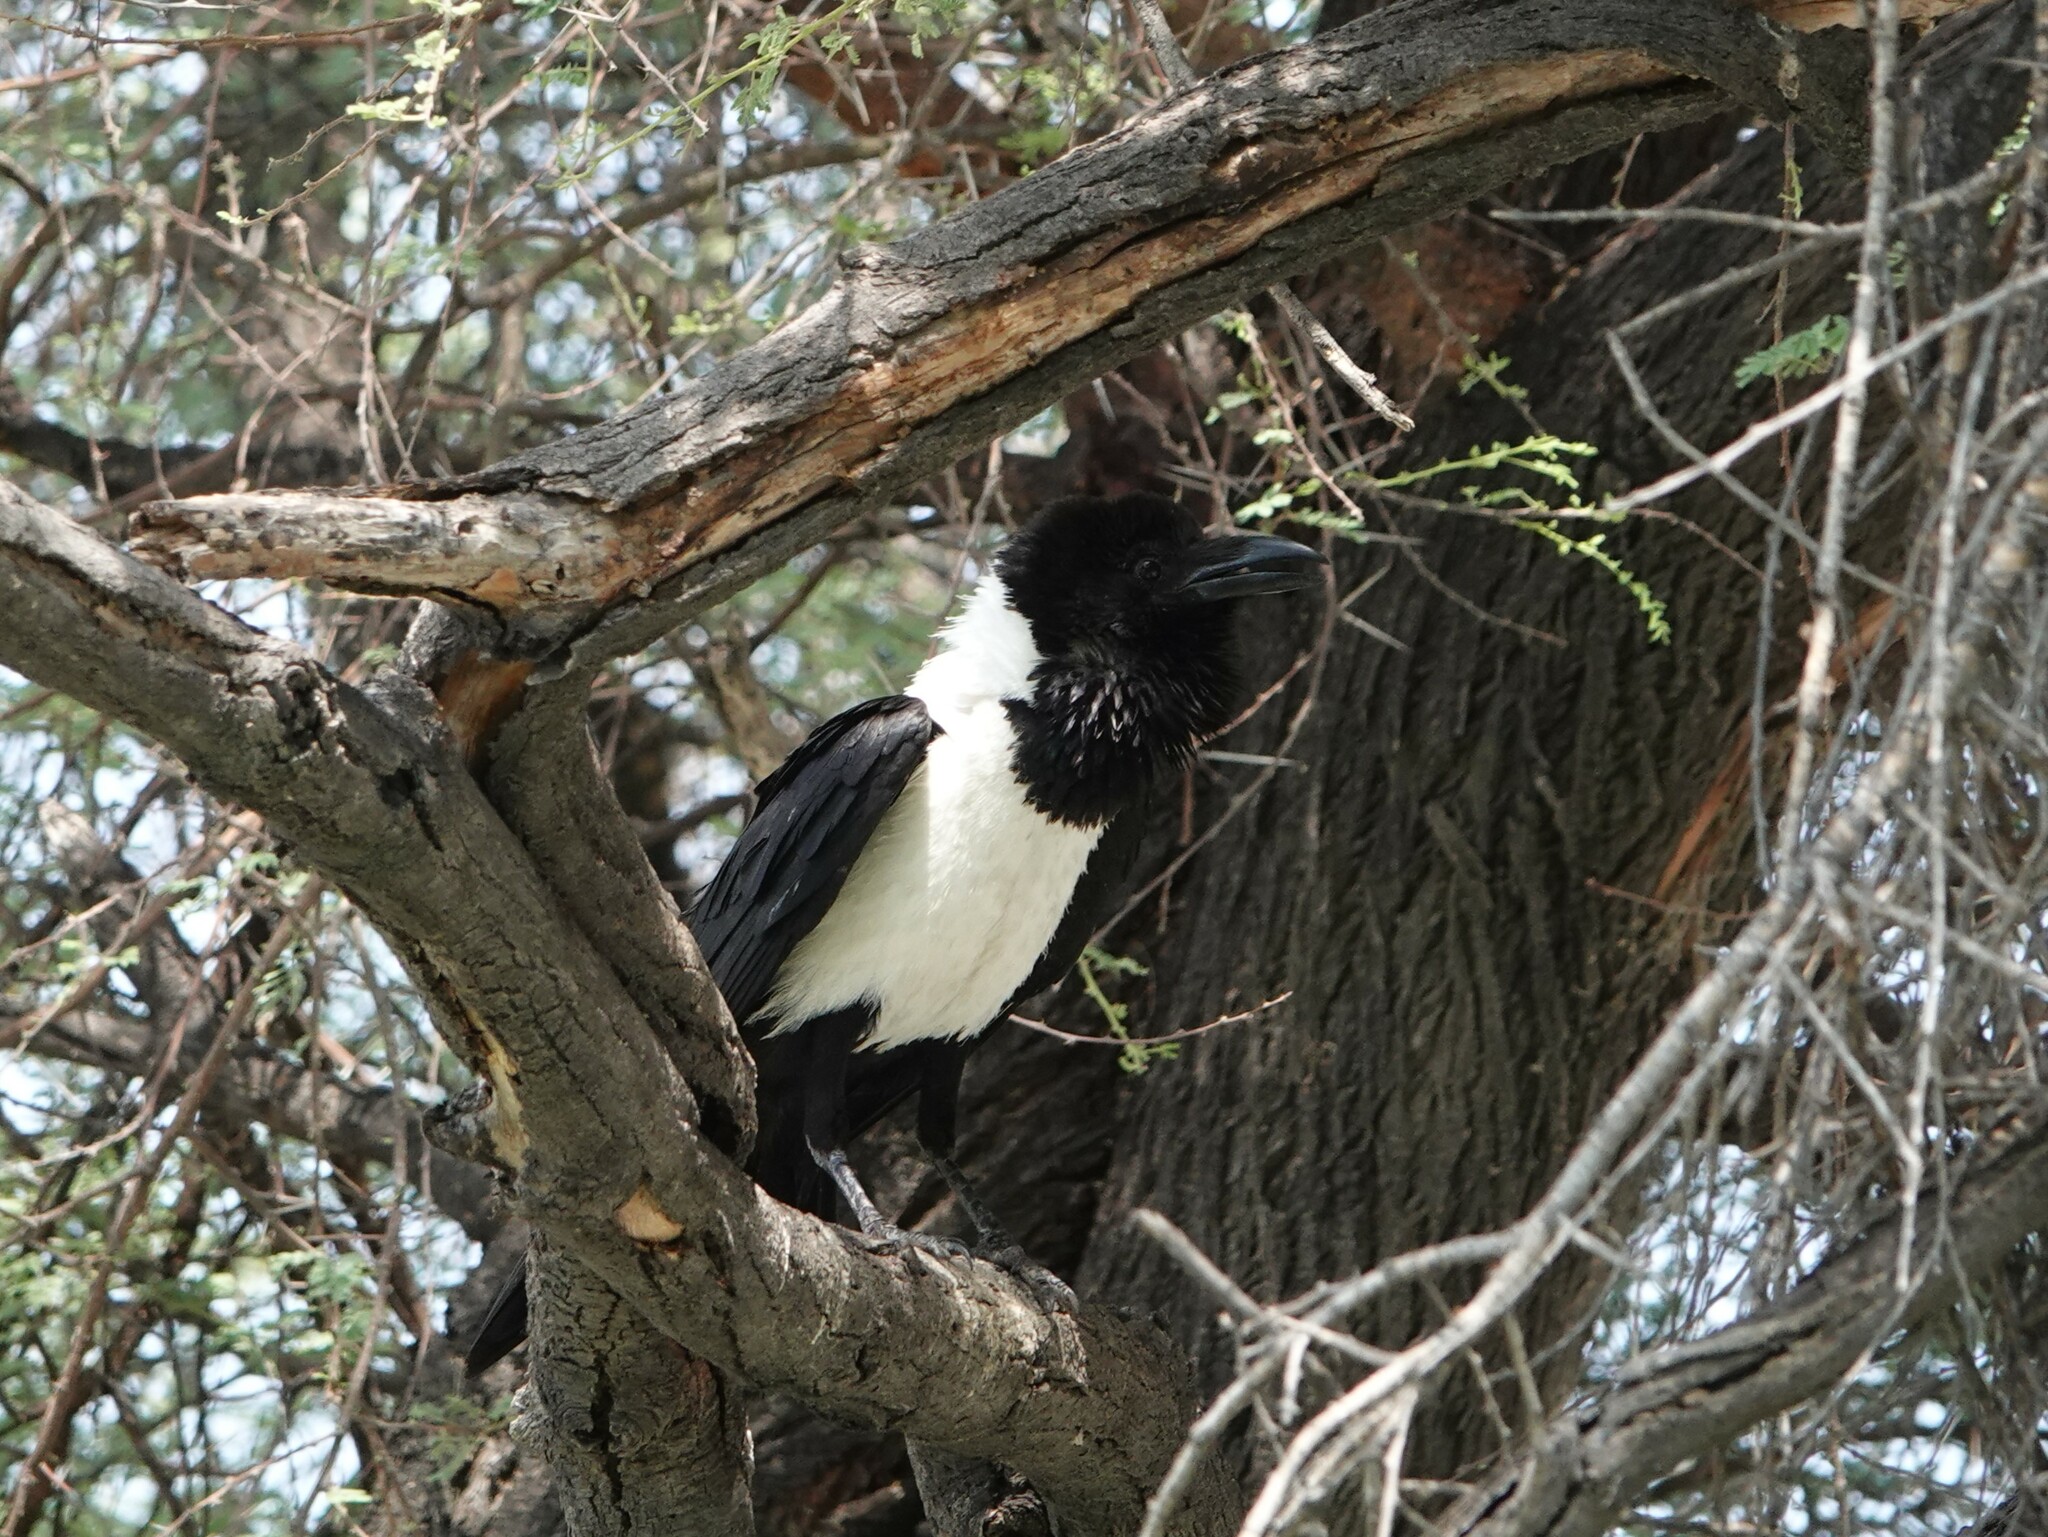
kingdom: Animalia
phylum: Chordata
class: Aves
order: Passeriformes
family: Corvidae
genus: Corvus
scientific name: Corvus albus
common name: Pied crow
